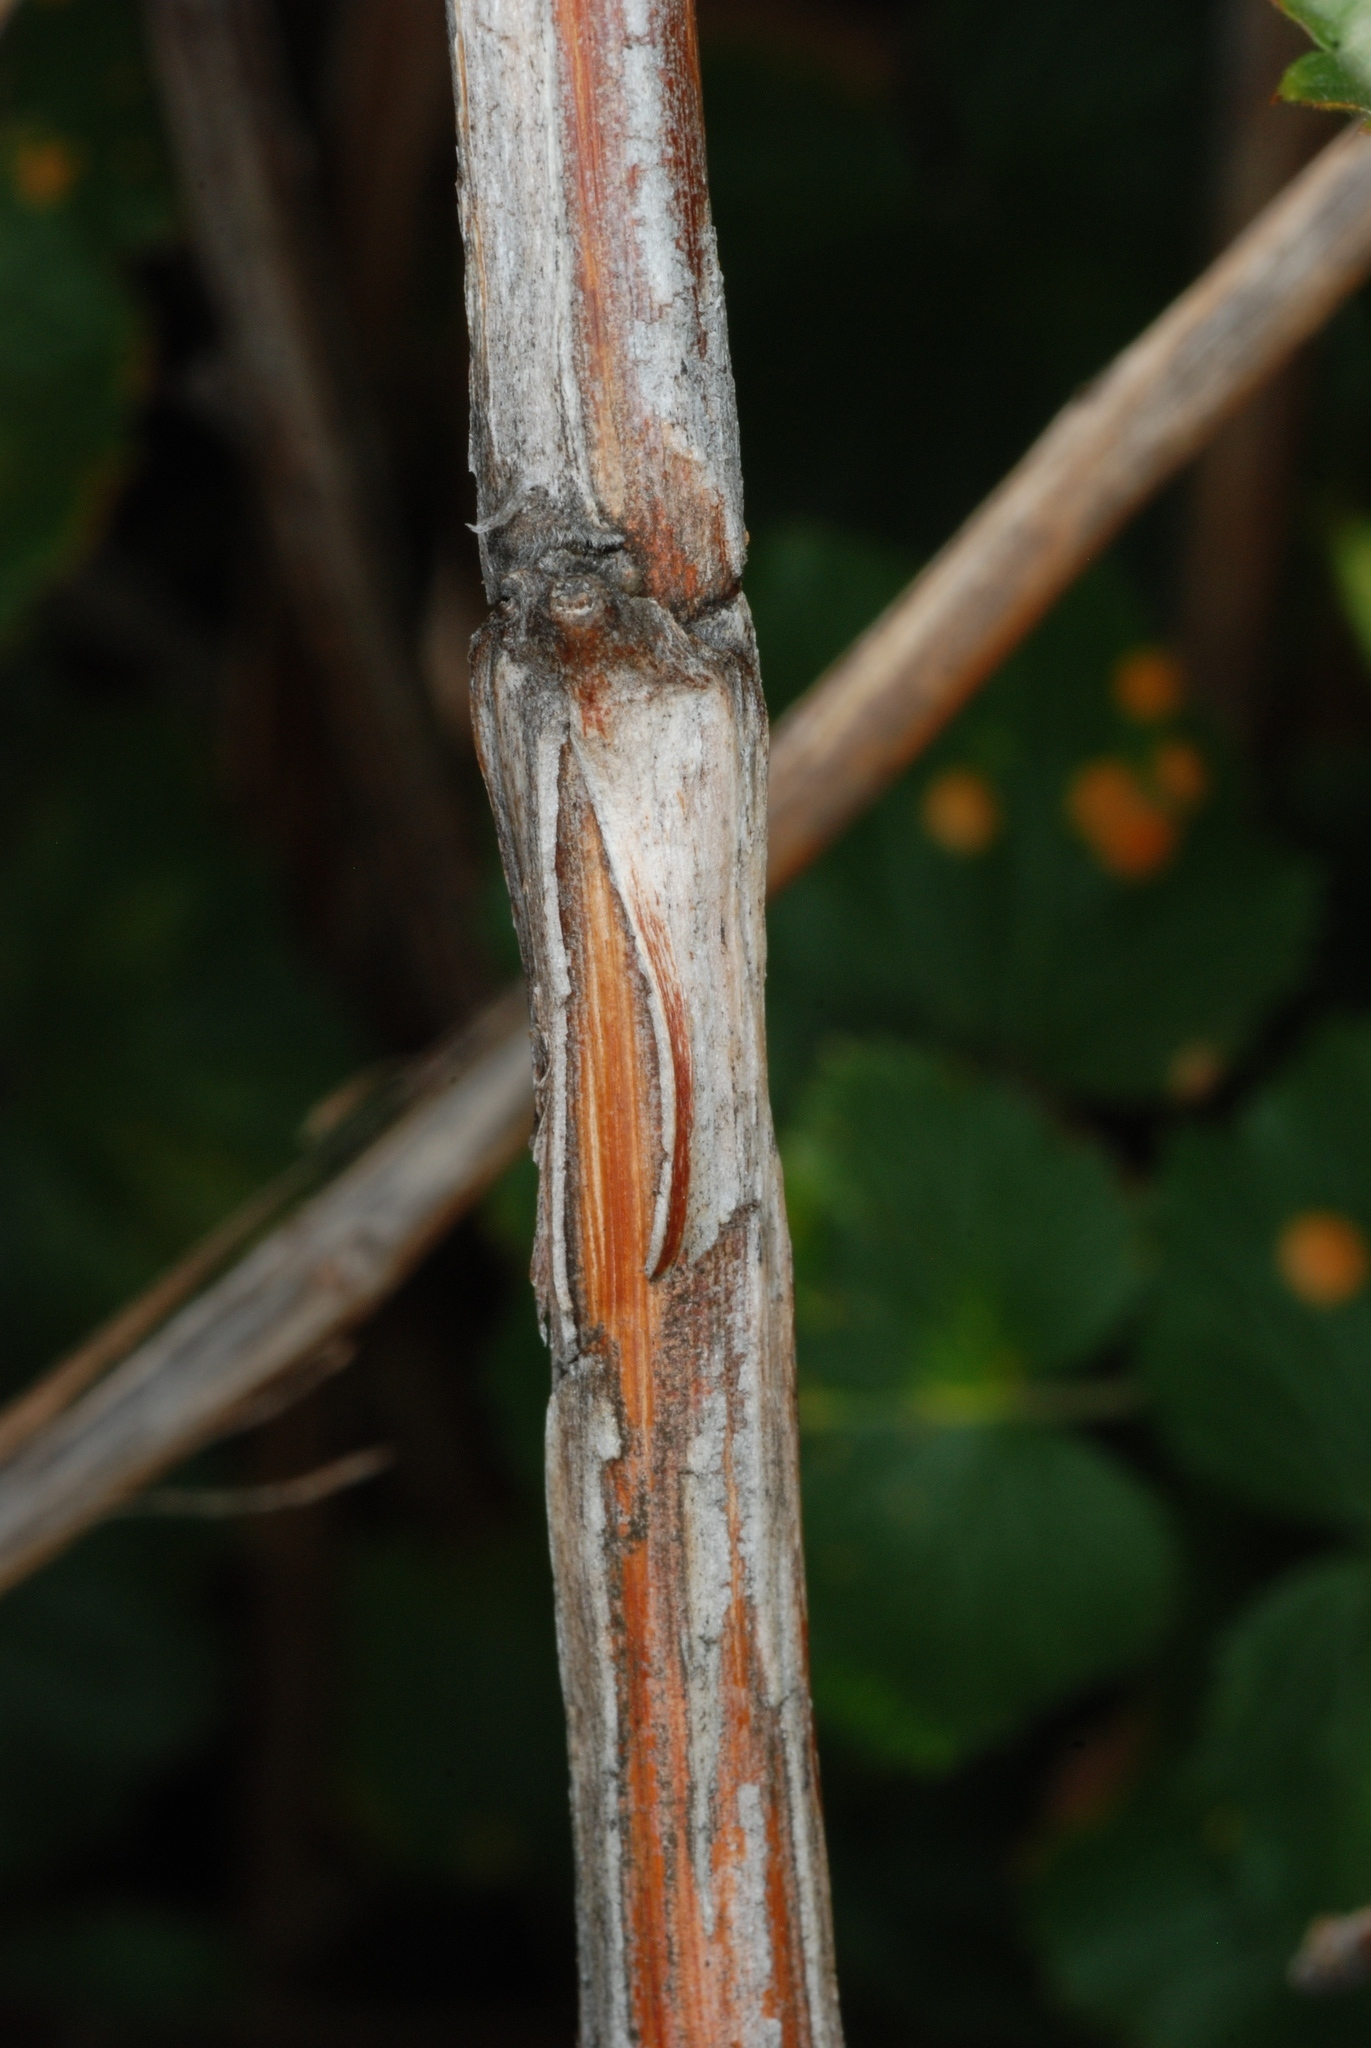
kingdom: Plantae
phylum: Tracheophyta
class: Magnoliopsida
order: Rosales
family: Rosaceae
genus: Rubus
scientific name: Rubus deliciosus
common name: Rocky mountain raspberry
